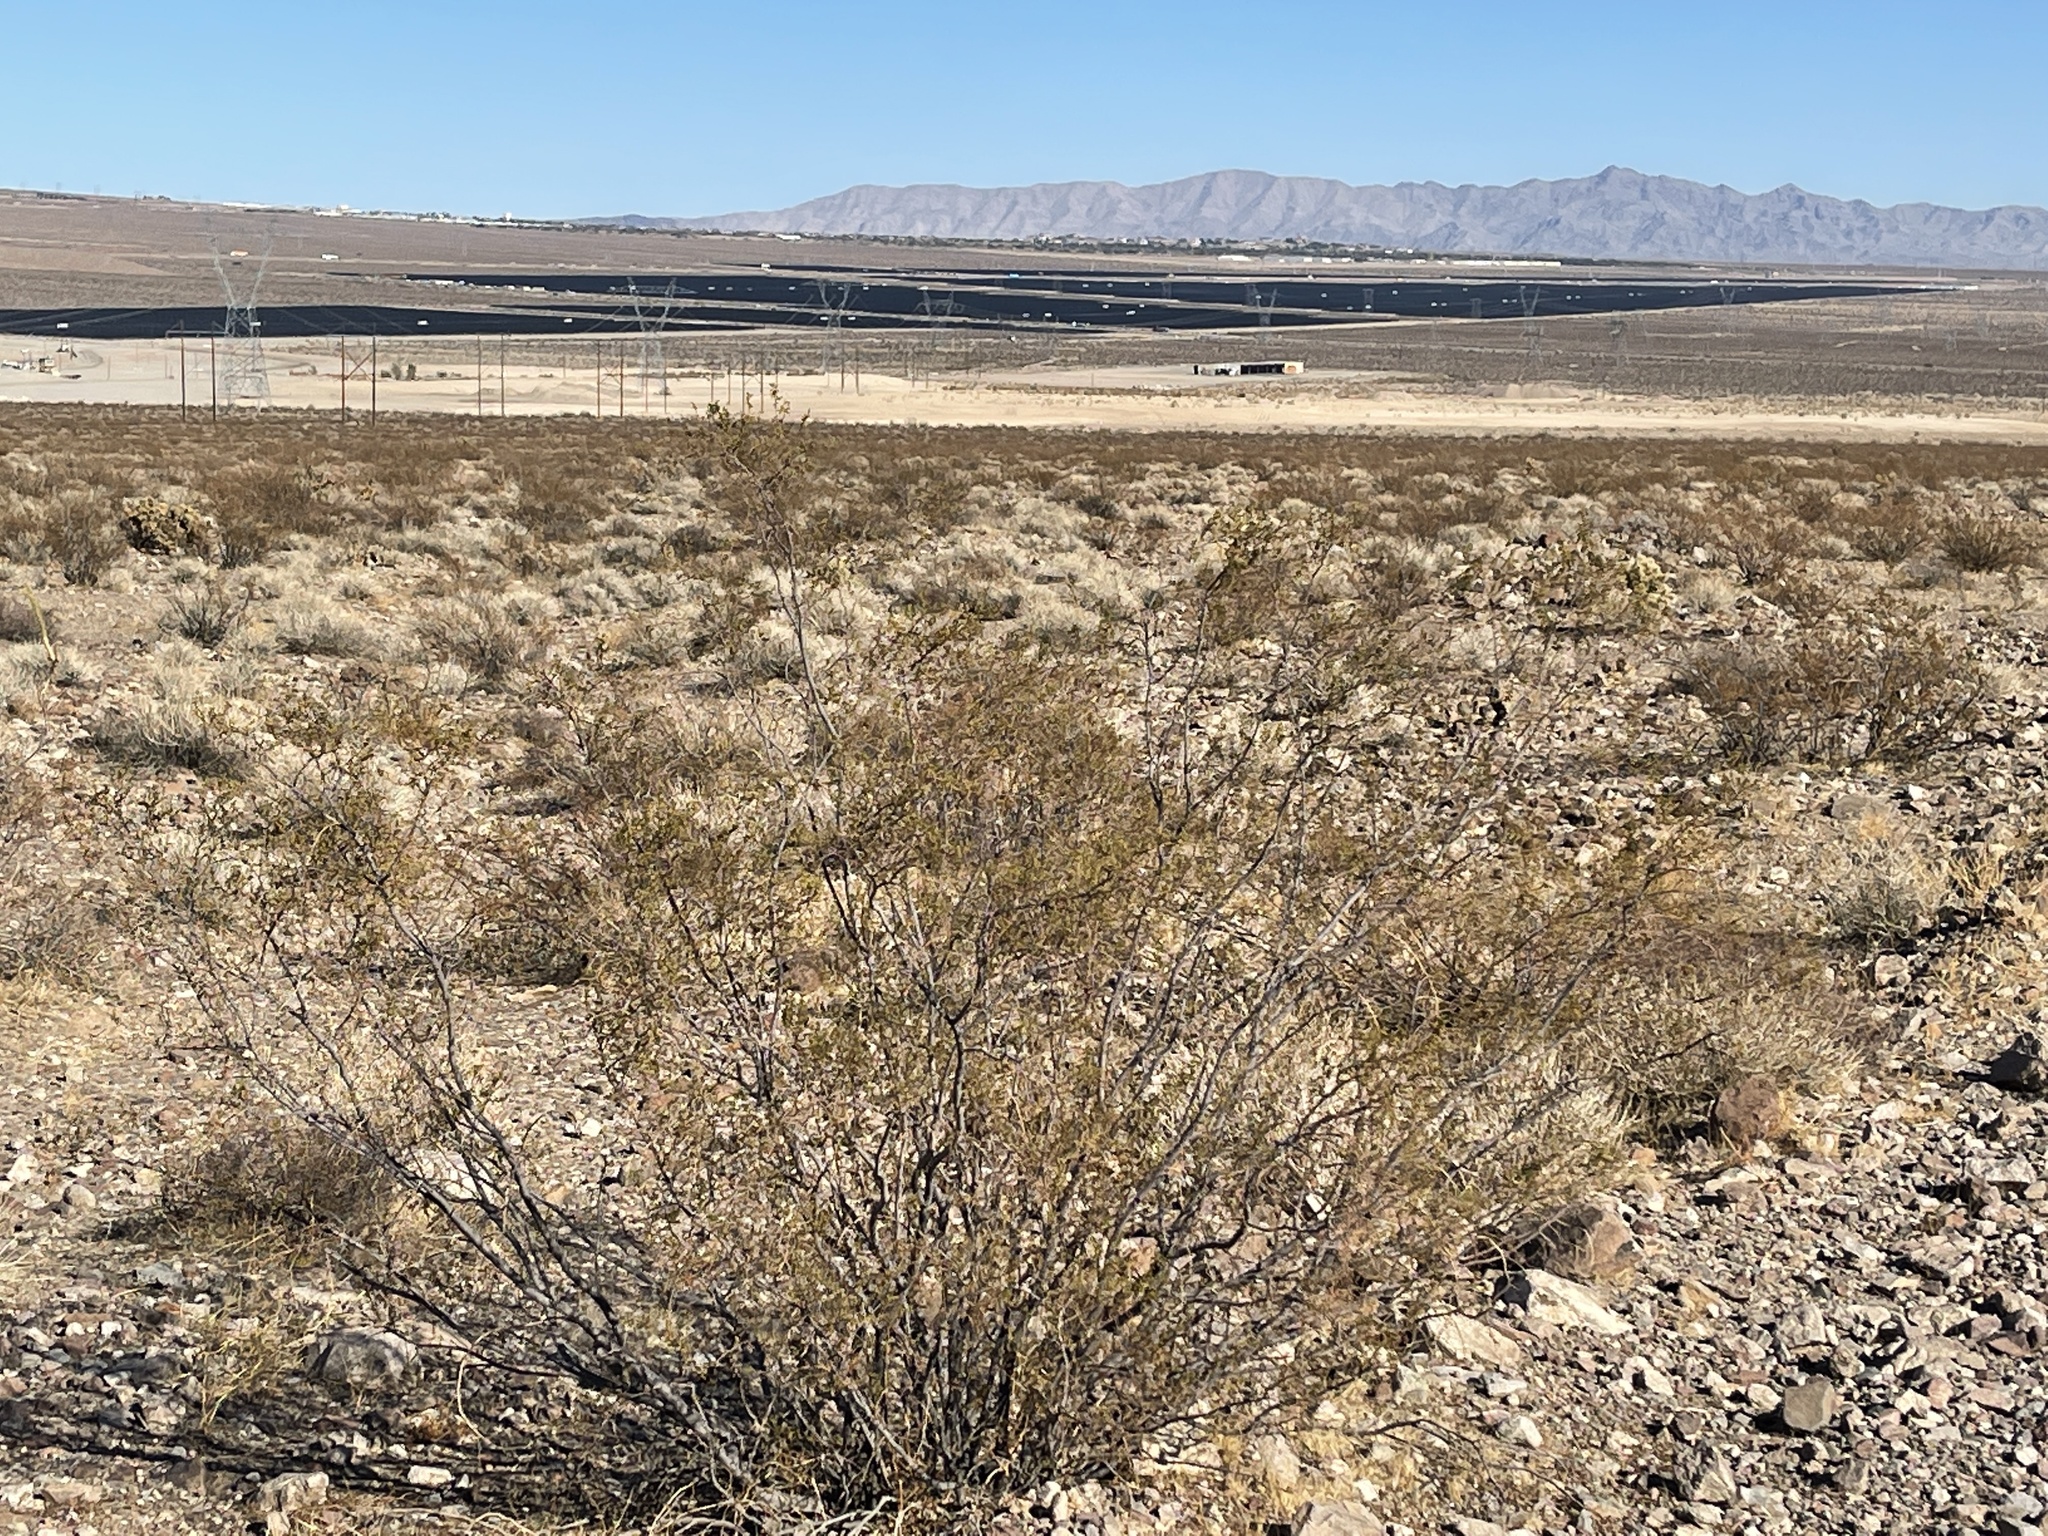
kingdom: Plantae
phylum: Tracheophyta
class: Magnoliopsida
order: Zygophyllales
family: Zygophyllaceae
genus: Larrea
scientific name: Larrea tridentata
